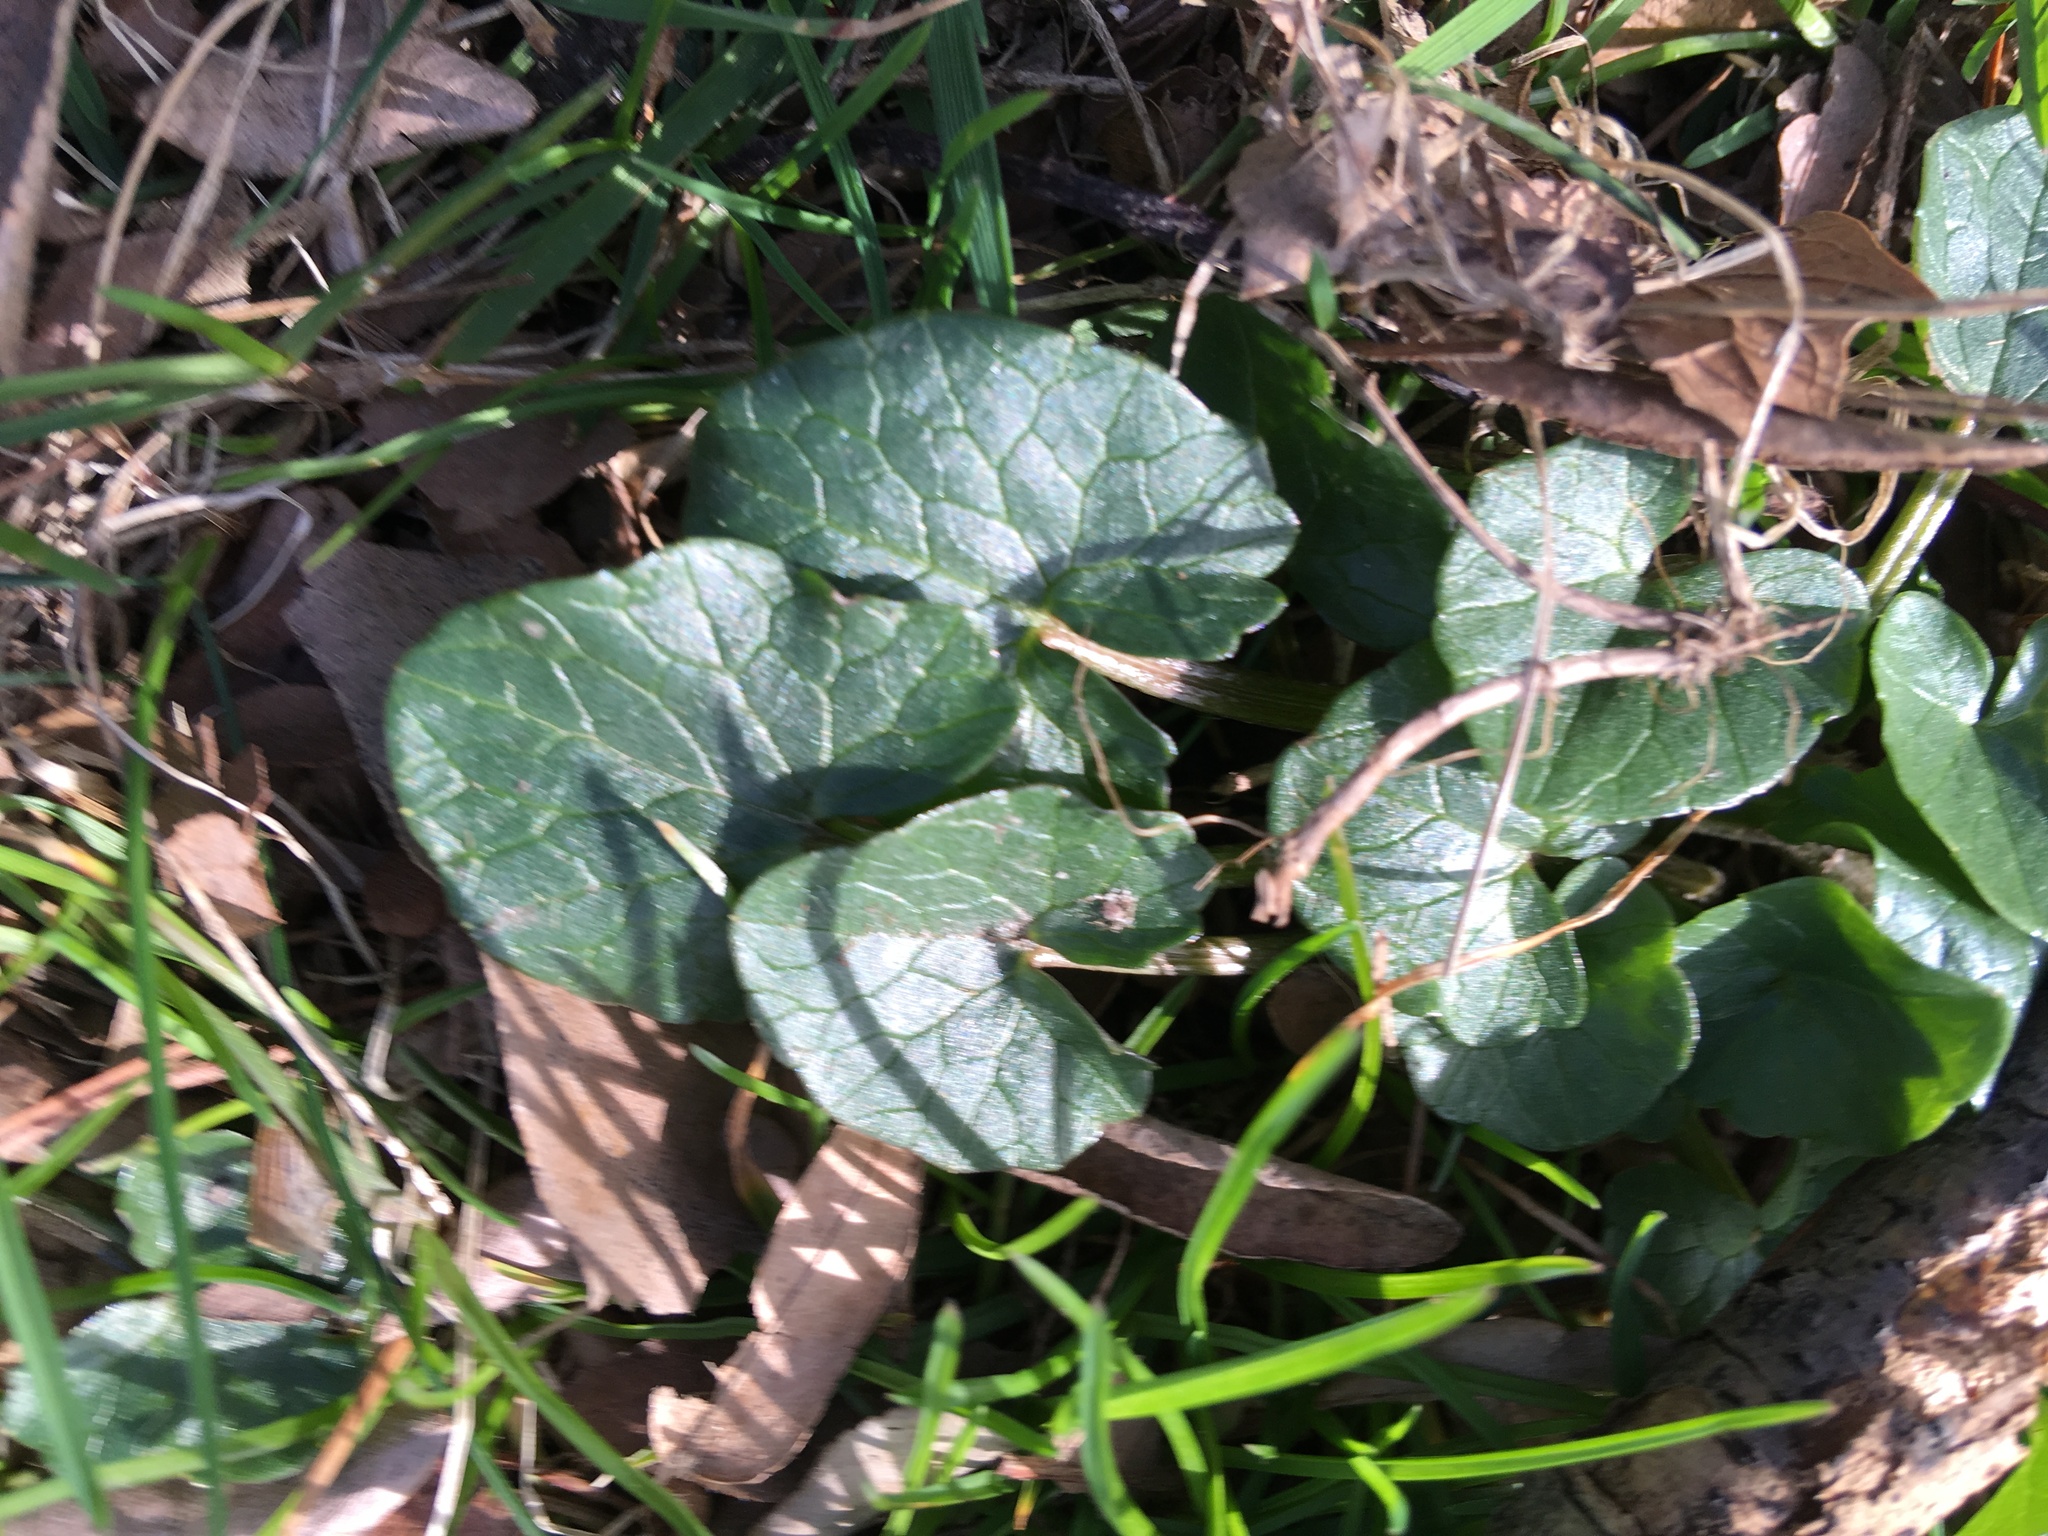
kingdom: Plantae
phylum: Tracheophyta
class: Magnoliopsida
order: Ranunculales
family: Ranunculaceae
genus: Ficaria
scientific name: Ficaria verna
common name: Lesser celandine
